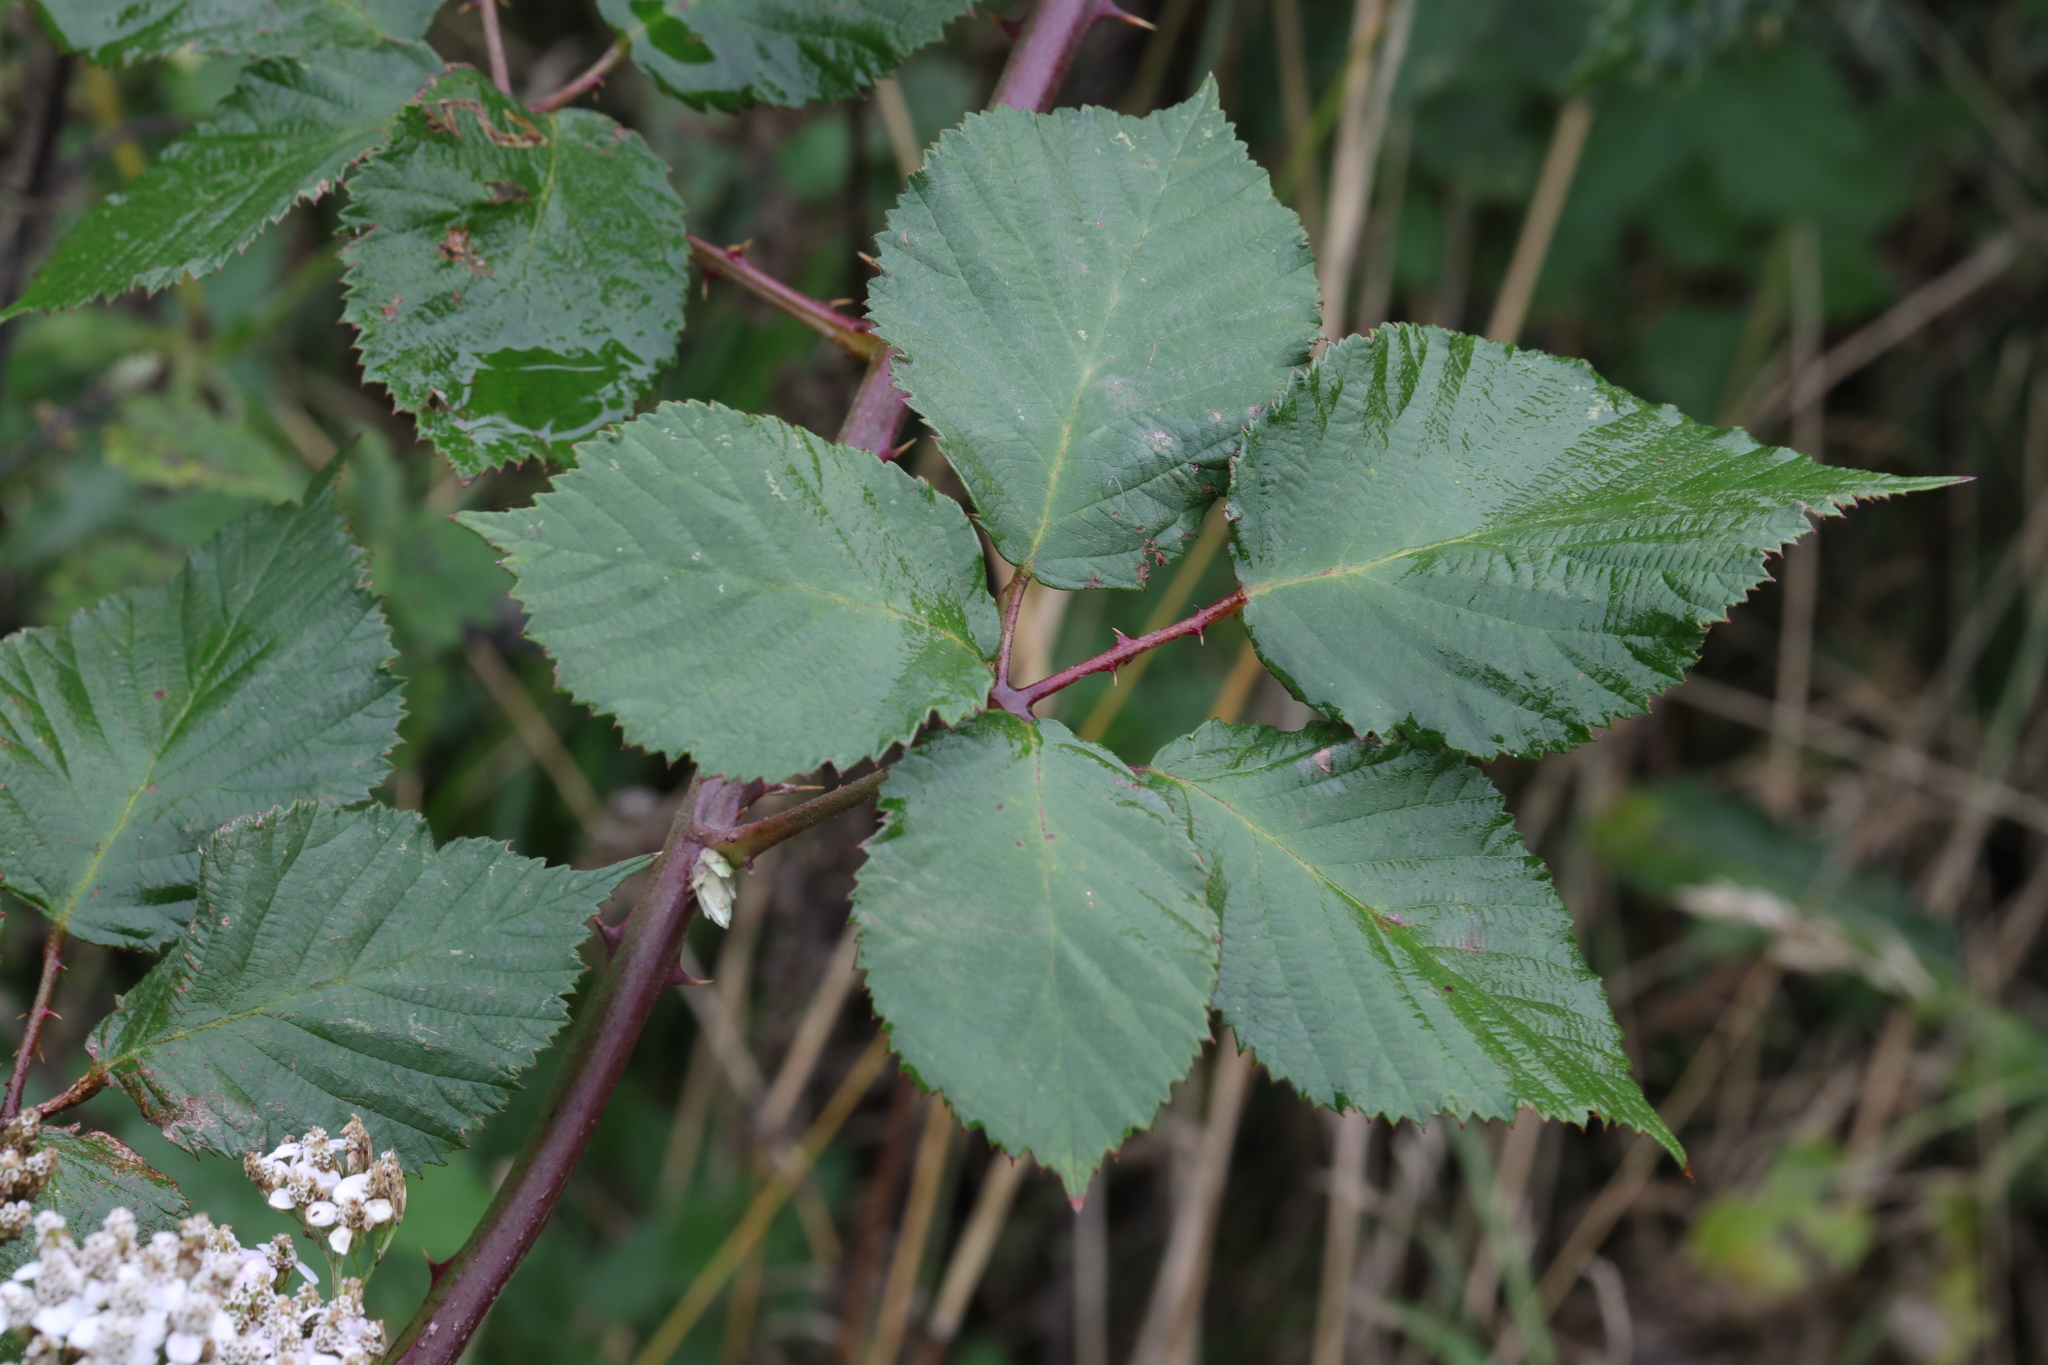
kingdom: Plantae
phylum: Tracheophyta
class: Magnoliopsida
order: Rosales
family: Rosaceae
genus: Rubus
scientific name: Rubus armeniacus
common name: Himalayan blackberry
